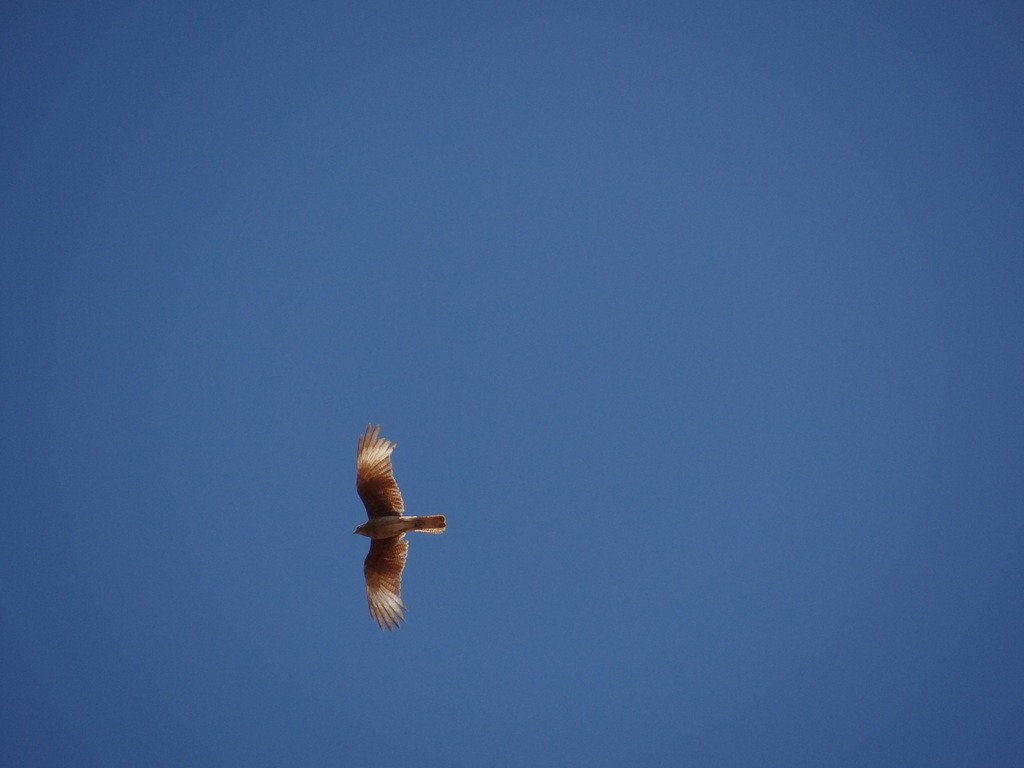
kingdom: Animalia
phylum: Chordata
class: Aves
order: Falconiformes
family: Falconidae
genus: Daptrius
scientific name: Daptrius
